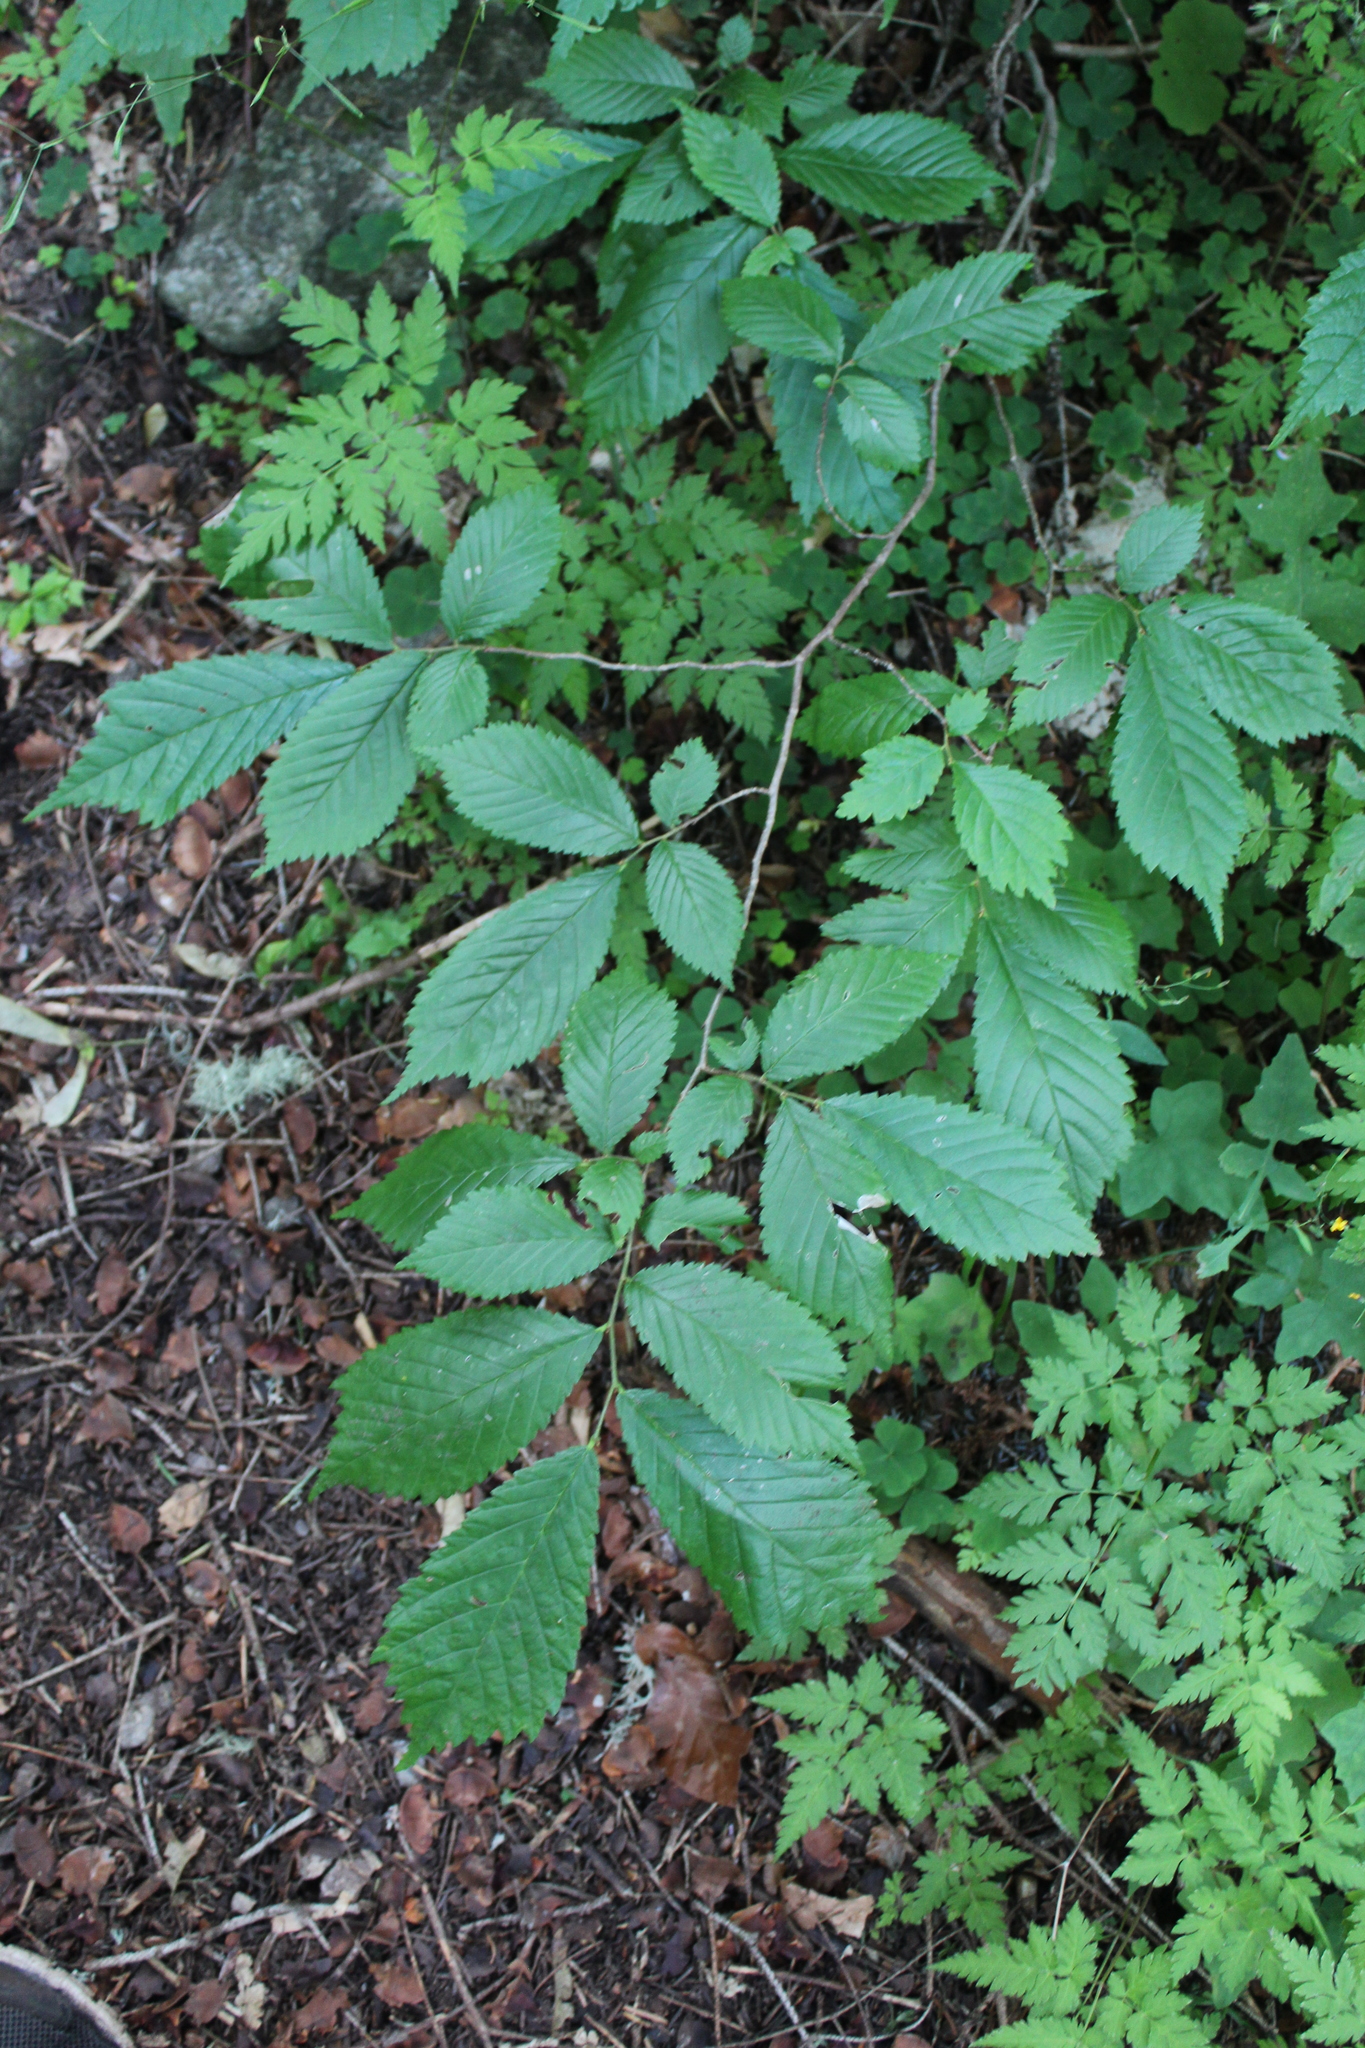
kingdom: Plantae
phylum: Tracheophyta
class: Magnoliopsida
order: Rosales
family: Ulmaceae
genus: Ulmus
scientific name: Ulmus glabra
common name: Wych elm
